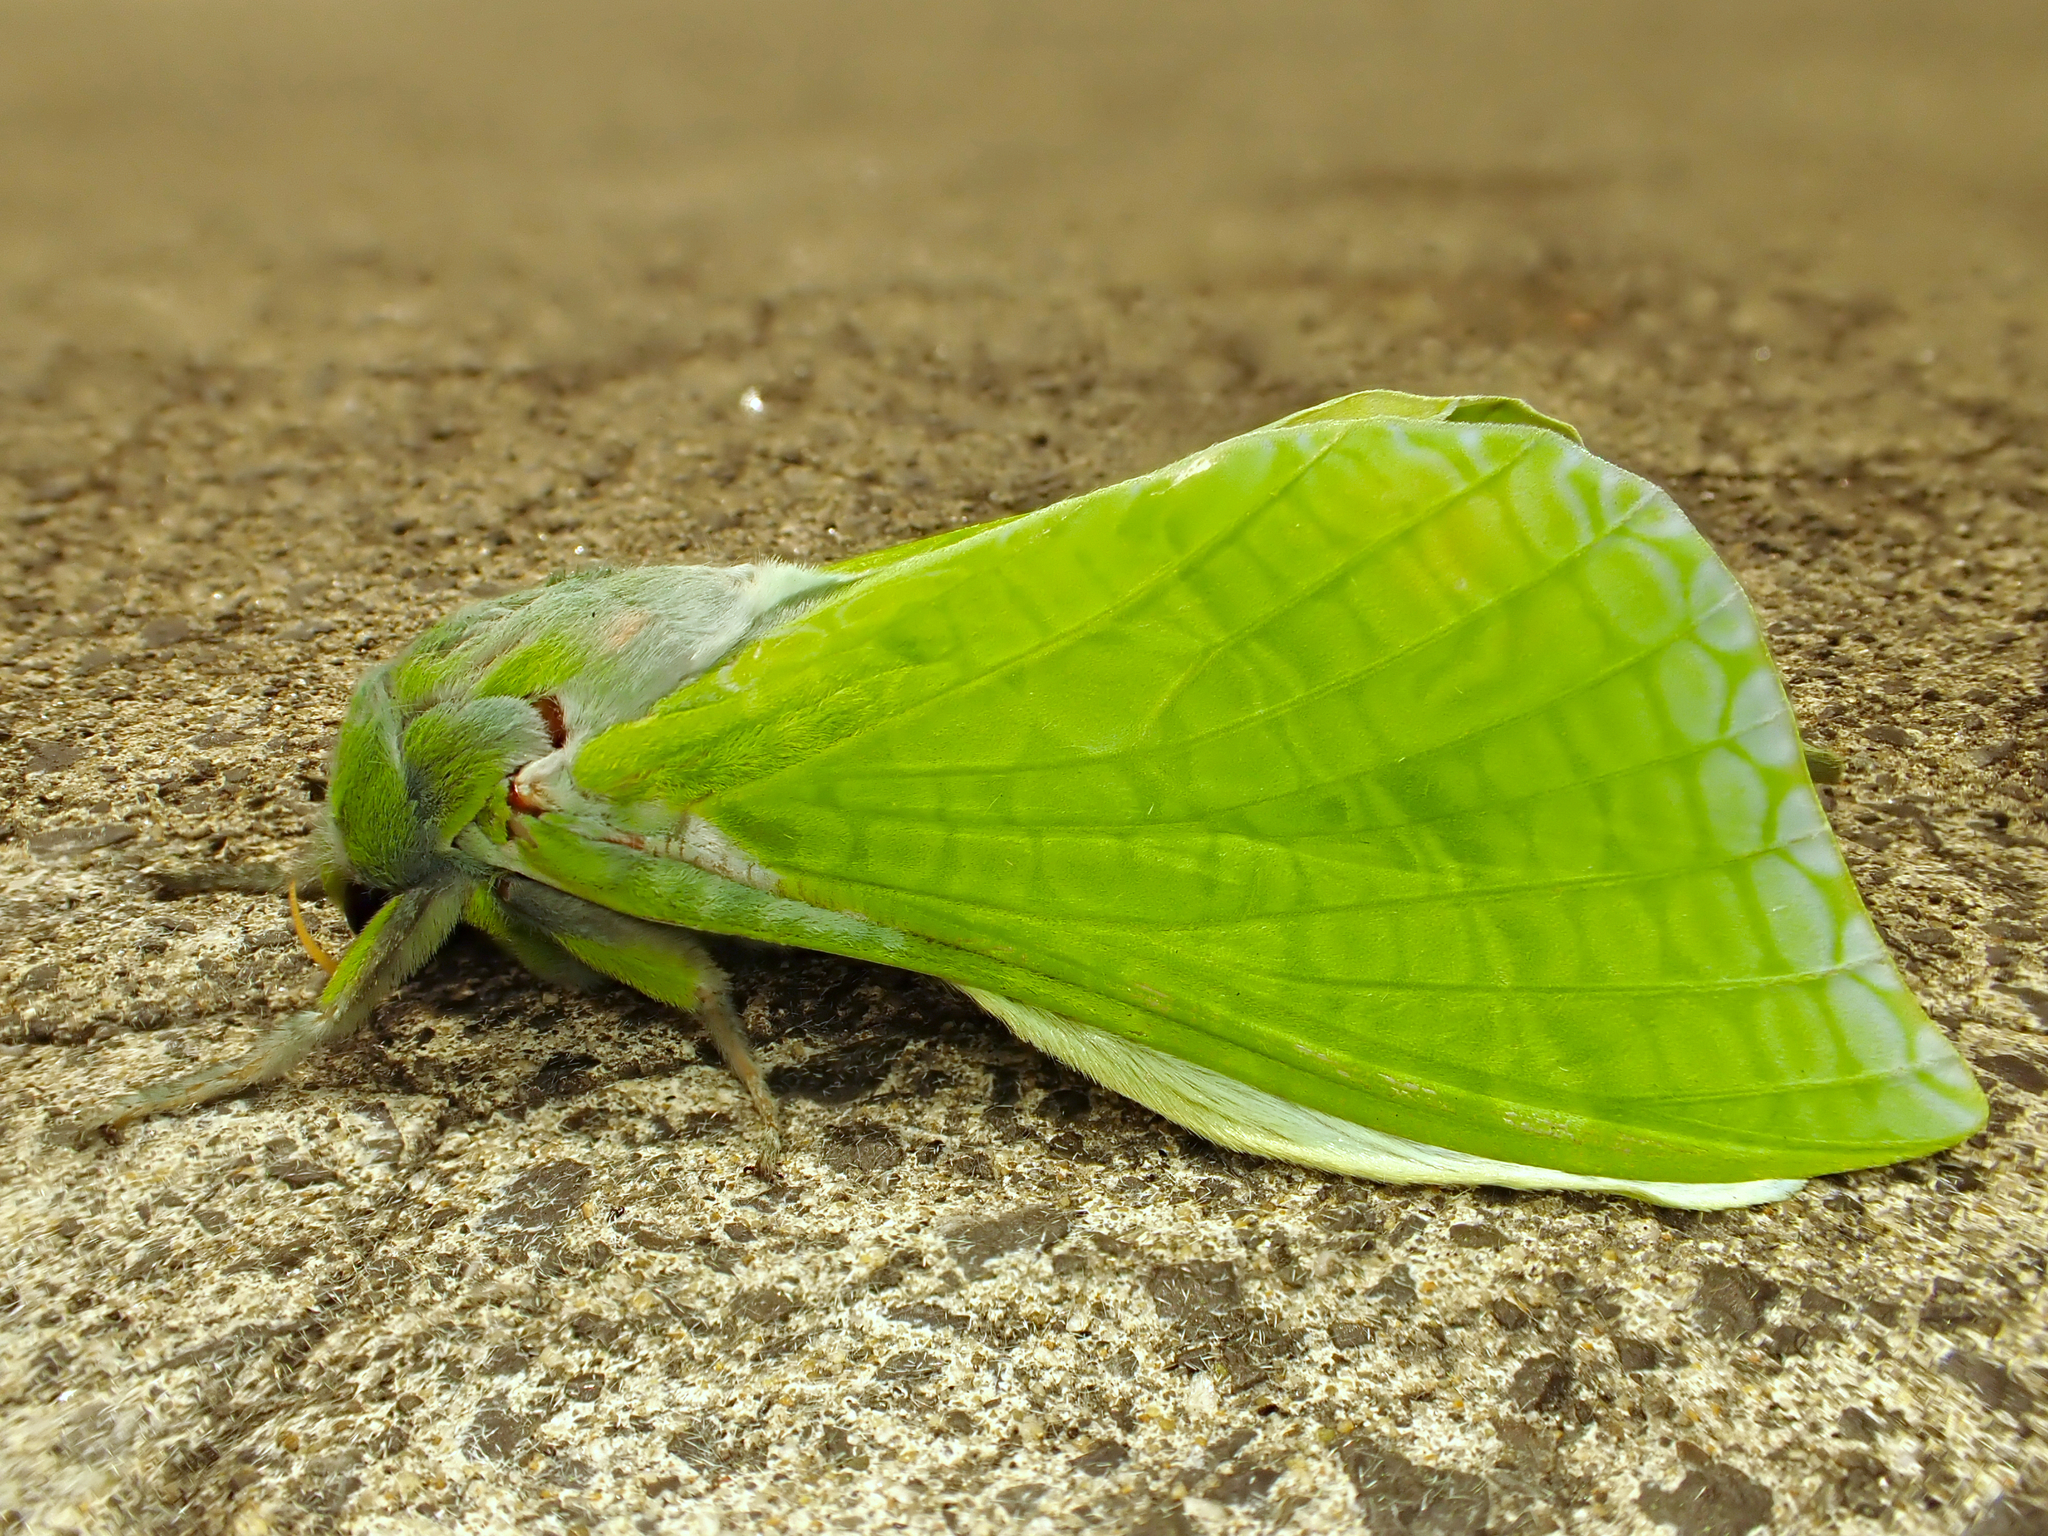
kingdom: Animalia
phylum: Arthropoda
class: Insecta
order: Lepidoptera
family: Hepialidae
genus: Aenetus
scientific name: Aenetus virescens
